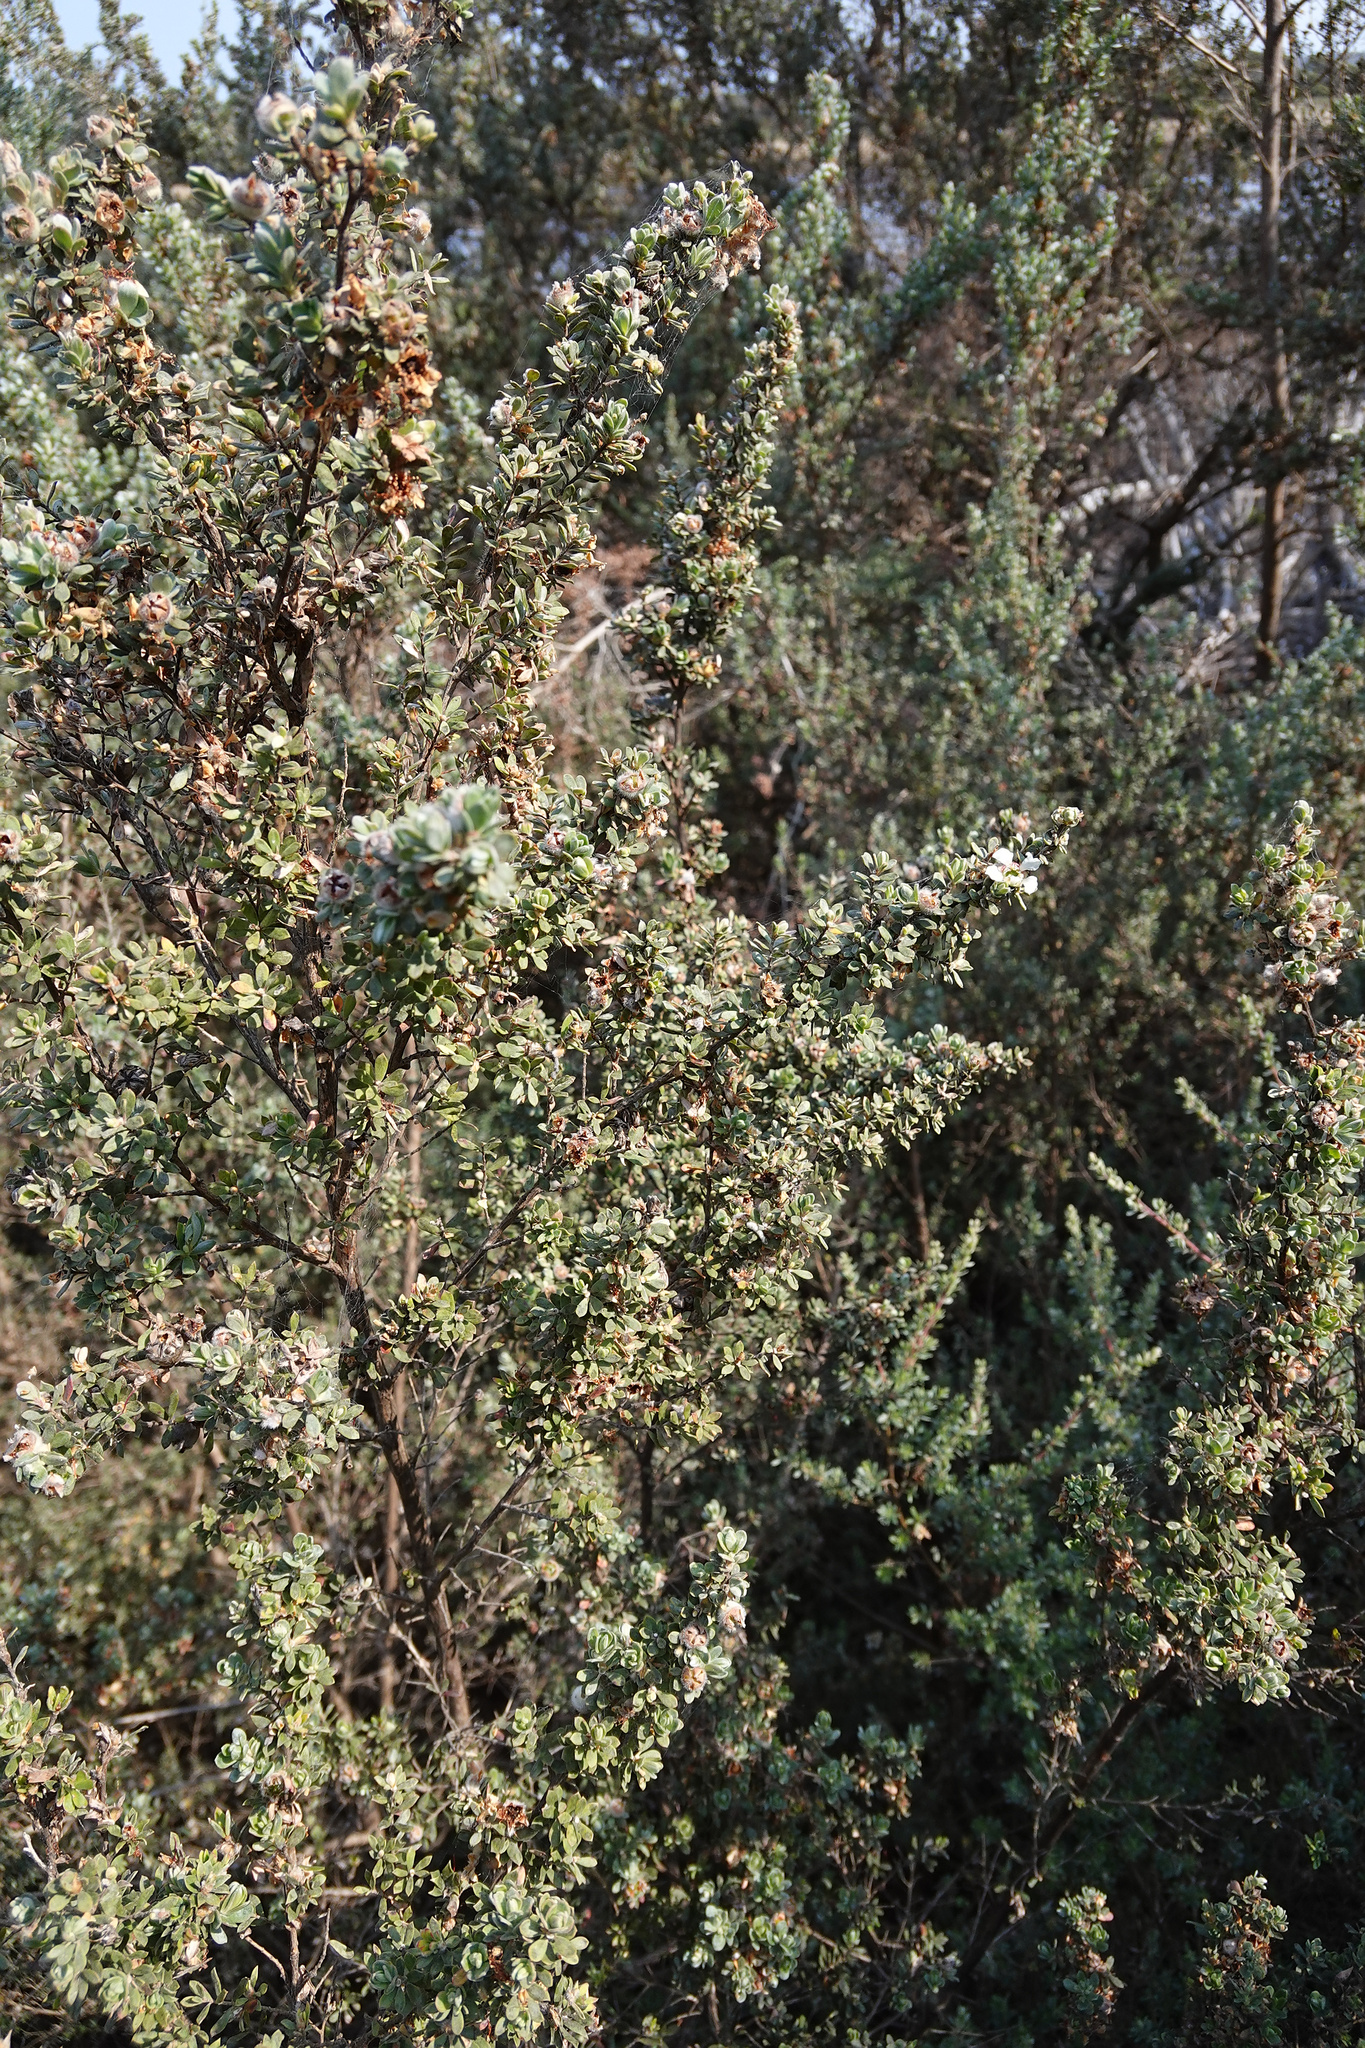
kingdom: Plantae
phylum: Tracheophyta
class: Magnoliopsida
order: Myrtales
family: Myrtaceae
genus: Leptospermum
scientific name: Leptospermum lanigerum
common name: Woolly tea-tree
